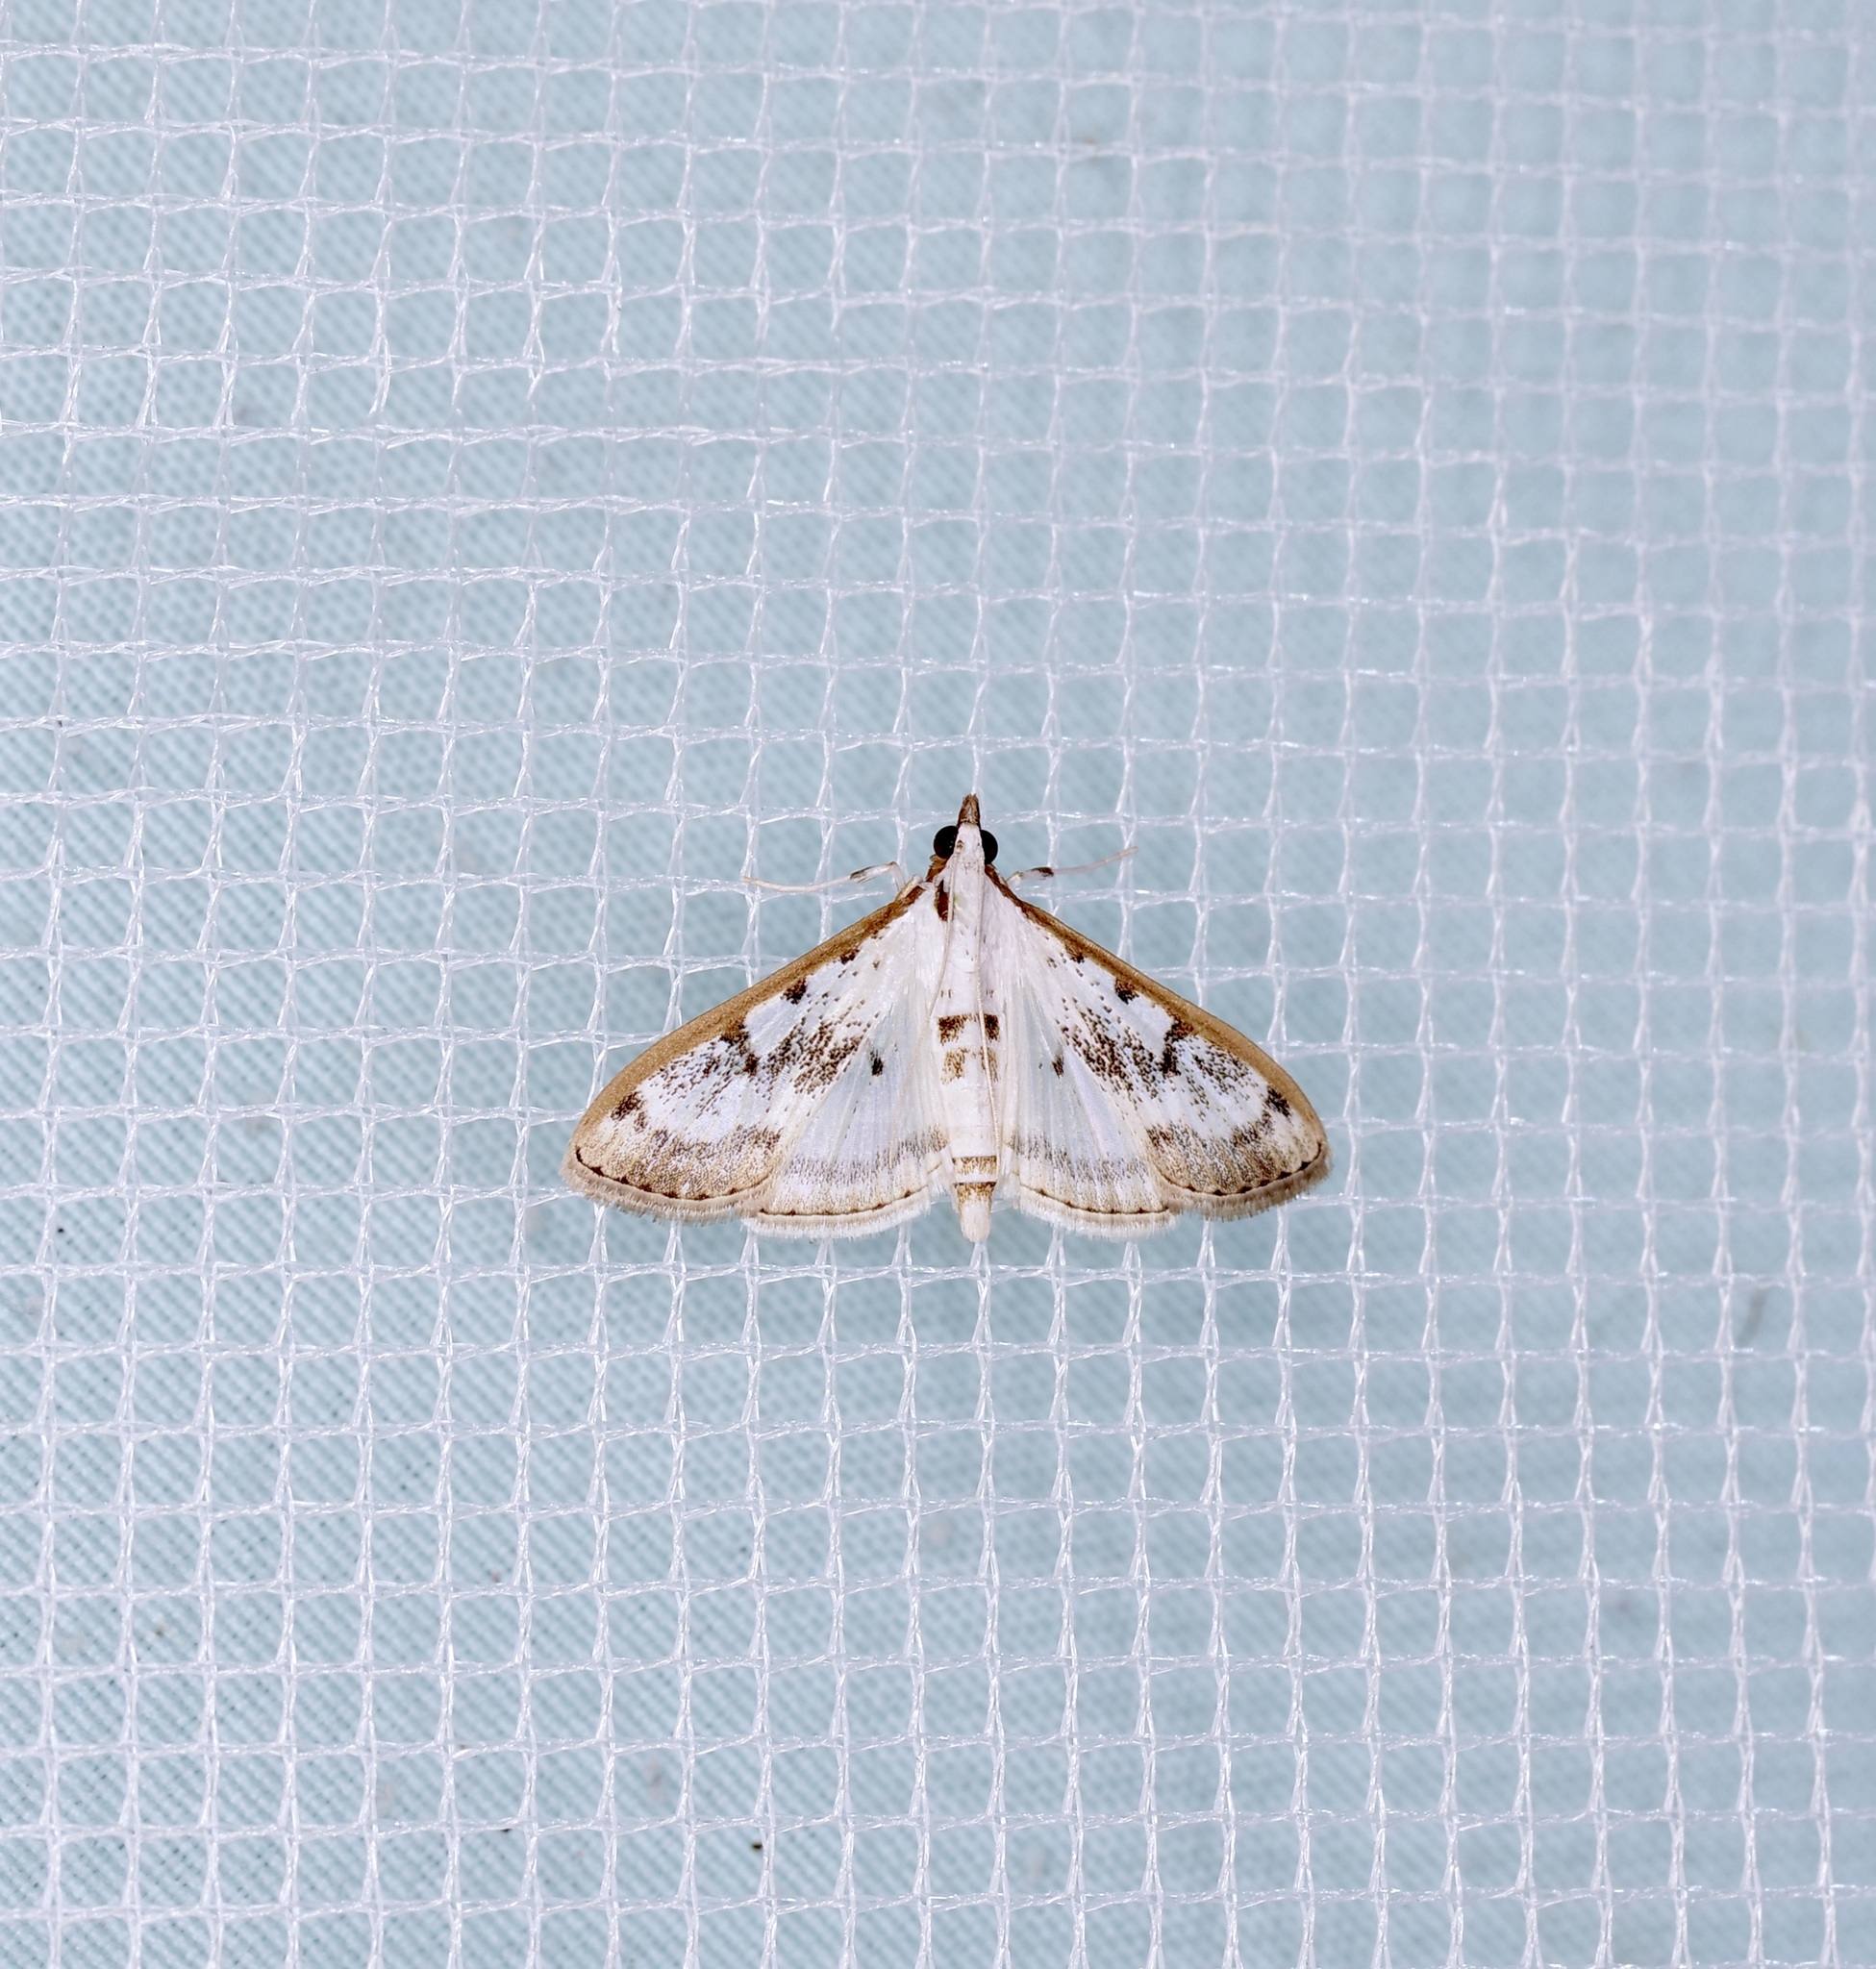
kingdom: Animalia
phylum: Arthropoda
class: Insecta
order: Lepidoptera
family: Crambidae
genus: Palpita
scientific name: Palpita gracilalis
